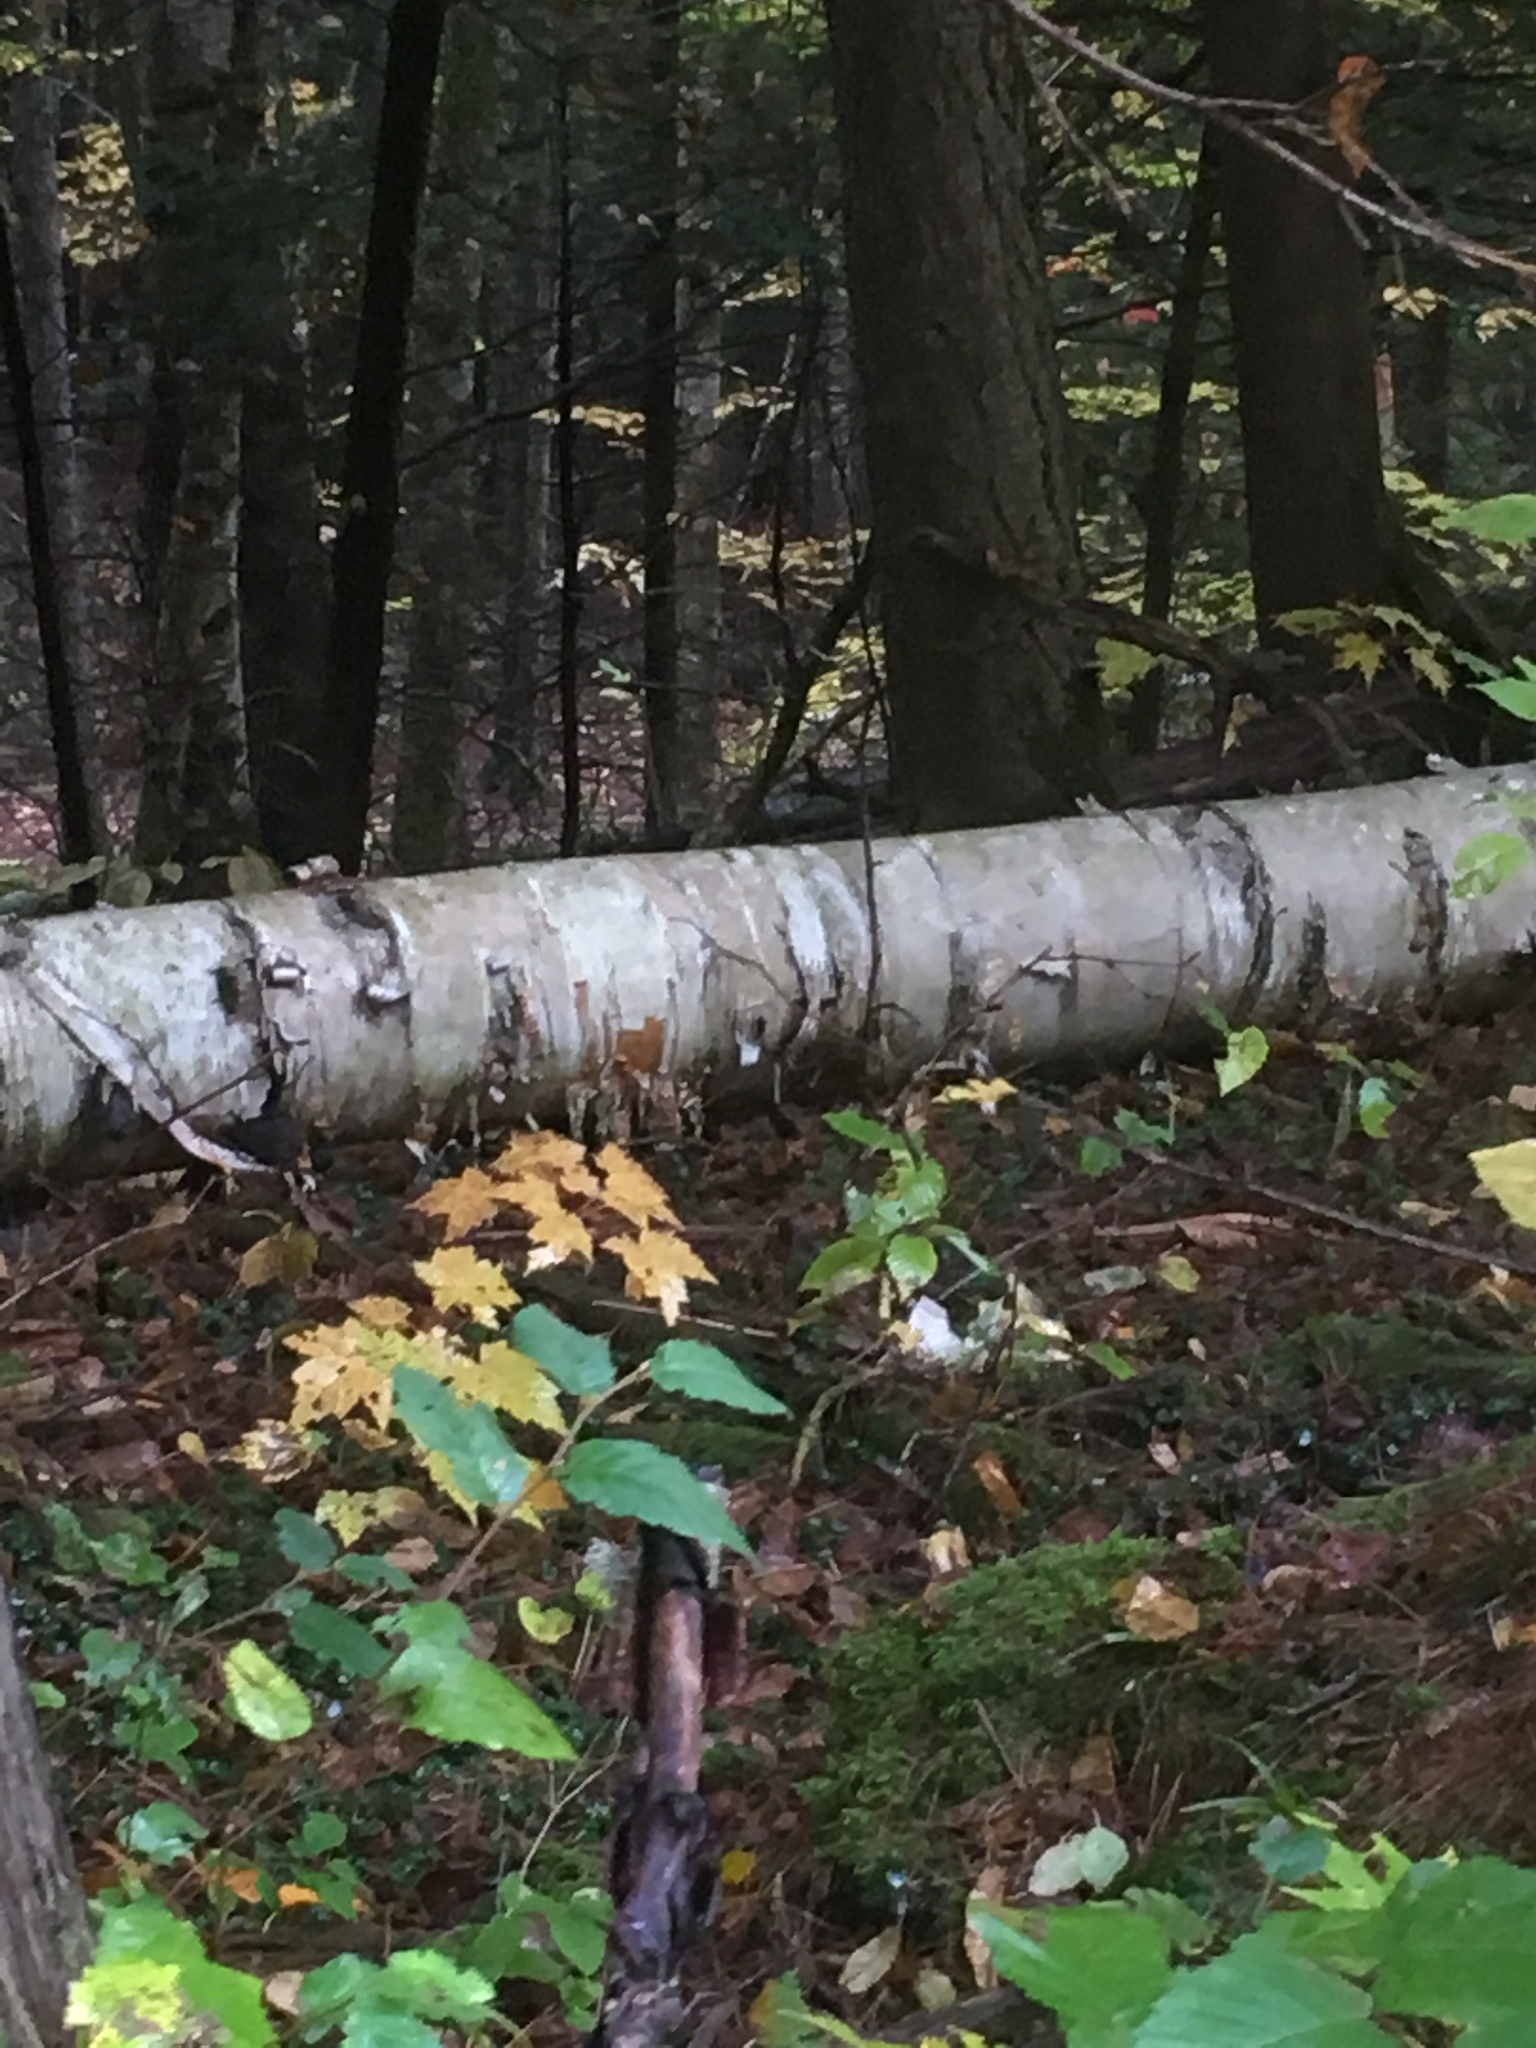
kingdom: Plantae
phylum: Tracheophyta
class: Magnoliopsida
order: Fagales
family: Betulaceae
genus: Betula
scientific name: Betula papyrifera
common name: Paper birch
